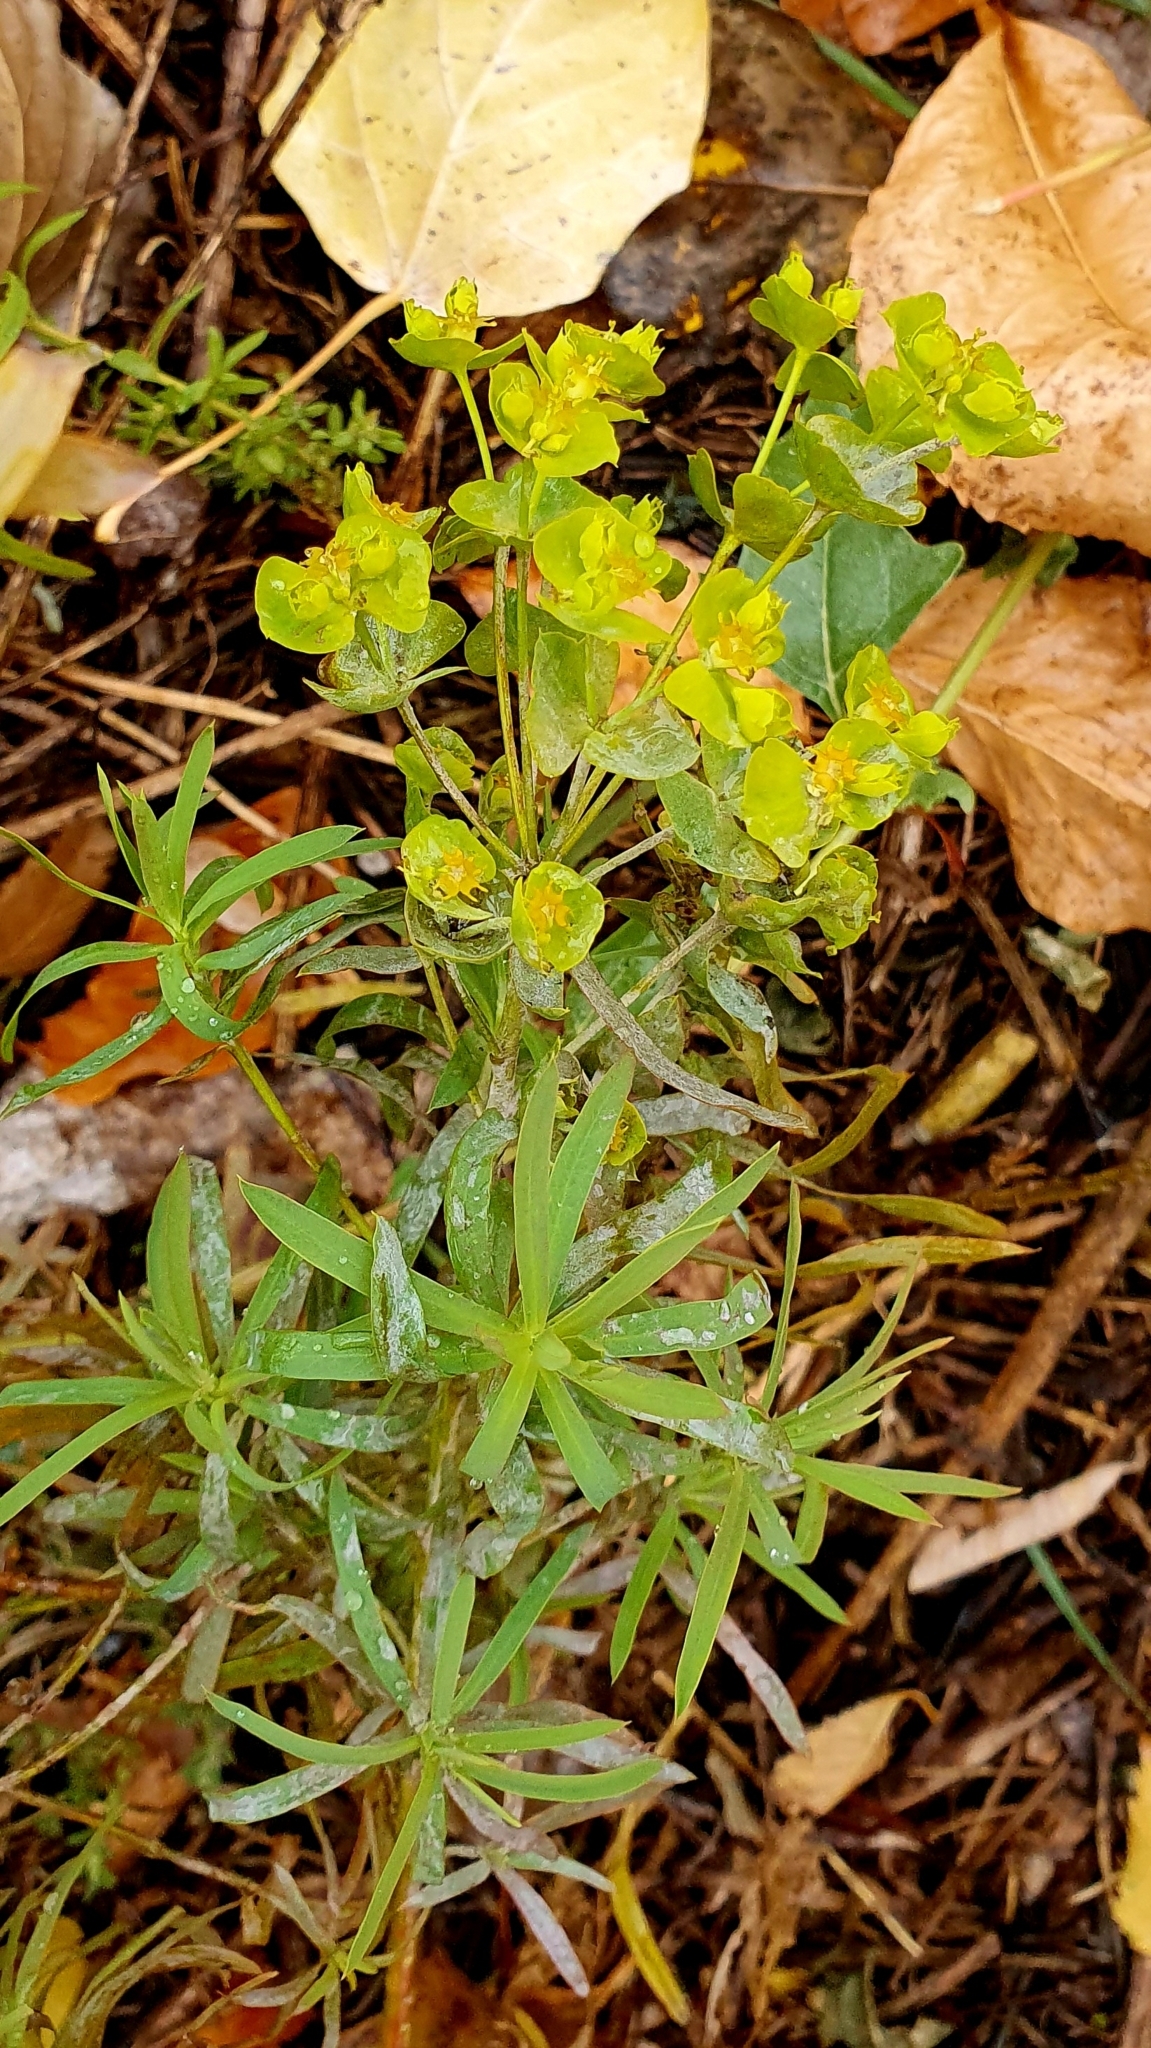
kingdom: Plantae
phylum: Tracheophyta
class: Magnoliopsida
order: Malpighiales
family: Euphorbiaceae
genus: Euphorbia
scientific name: Euphorbia virgata
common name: Leafy spurge
